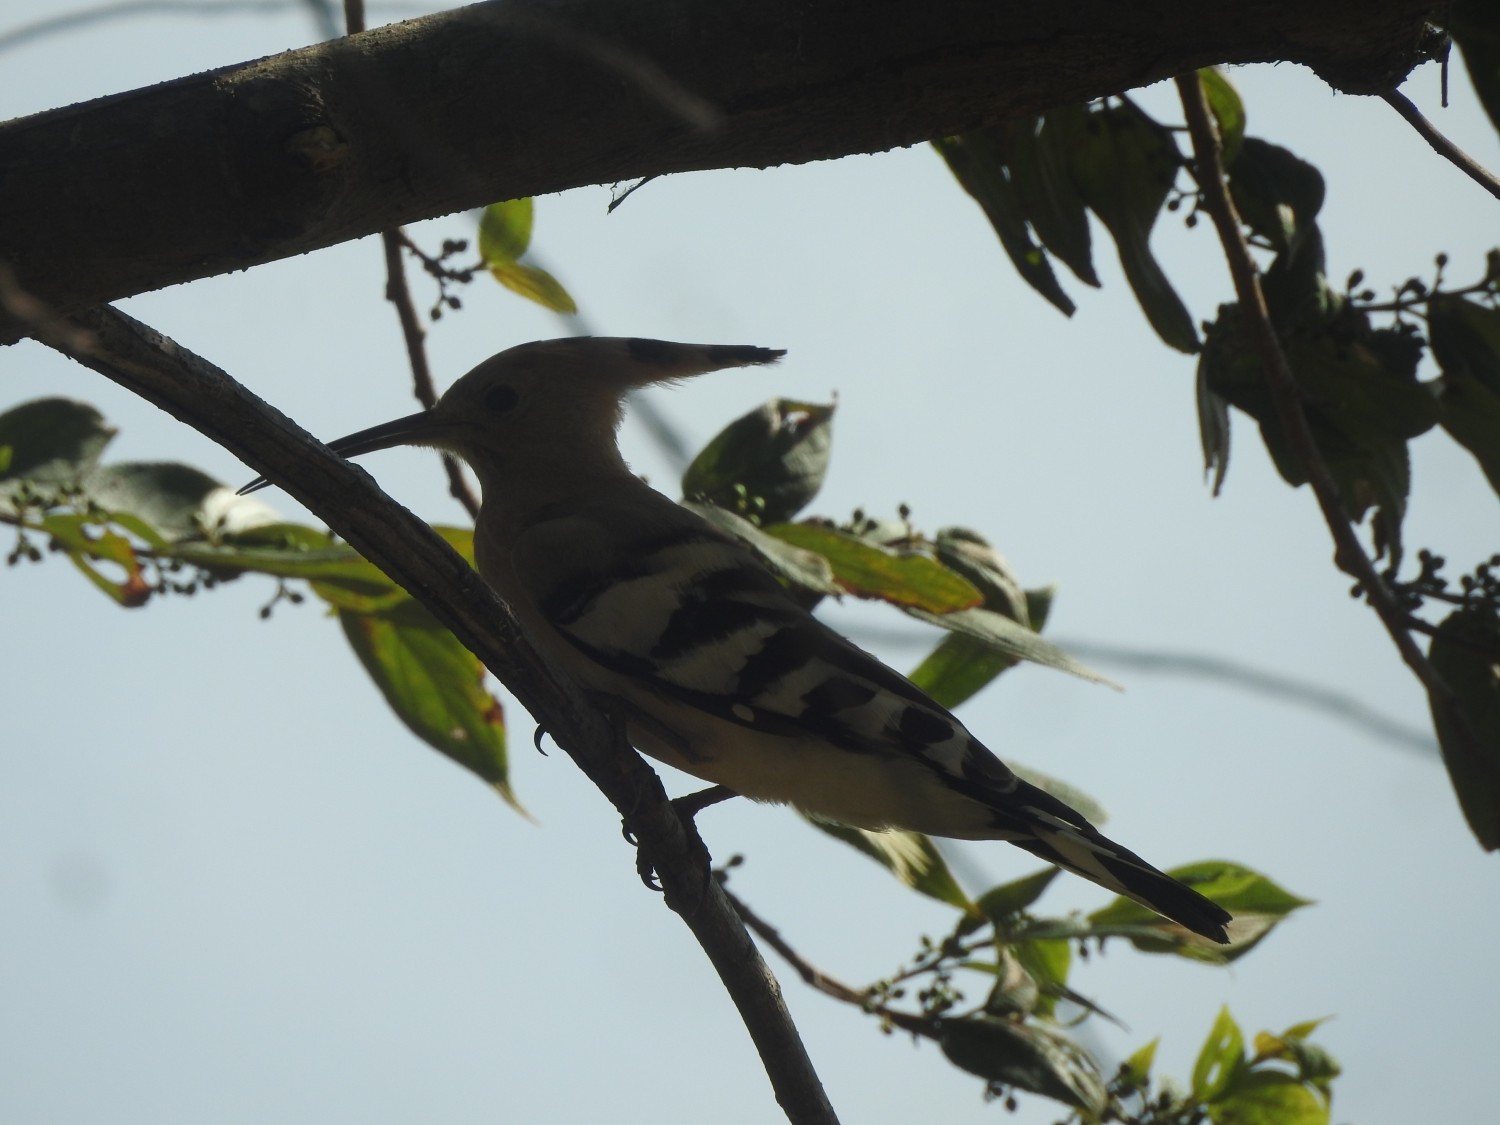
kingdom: Animalia
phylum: Chordata
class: Aves
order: Bucerotiformes
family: Upupidae
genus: Upupa
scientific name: Upupa epops
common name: Eurasian hoopoe
